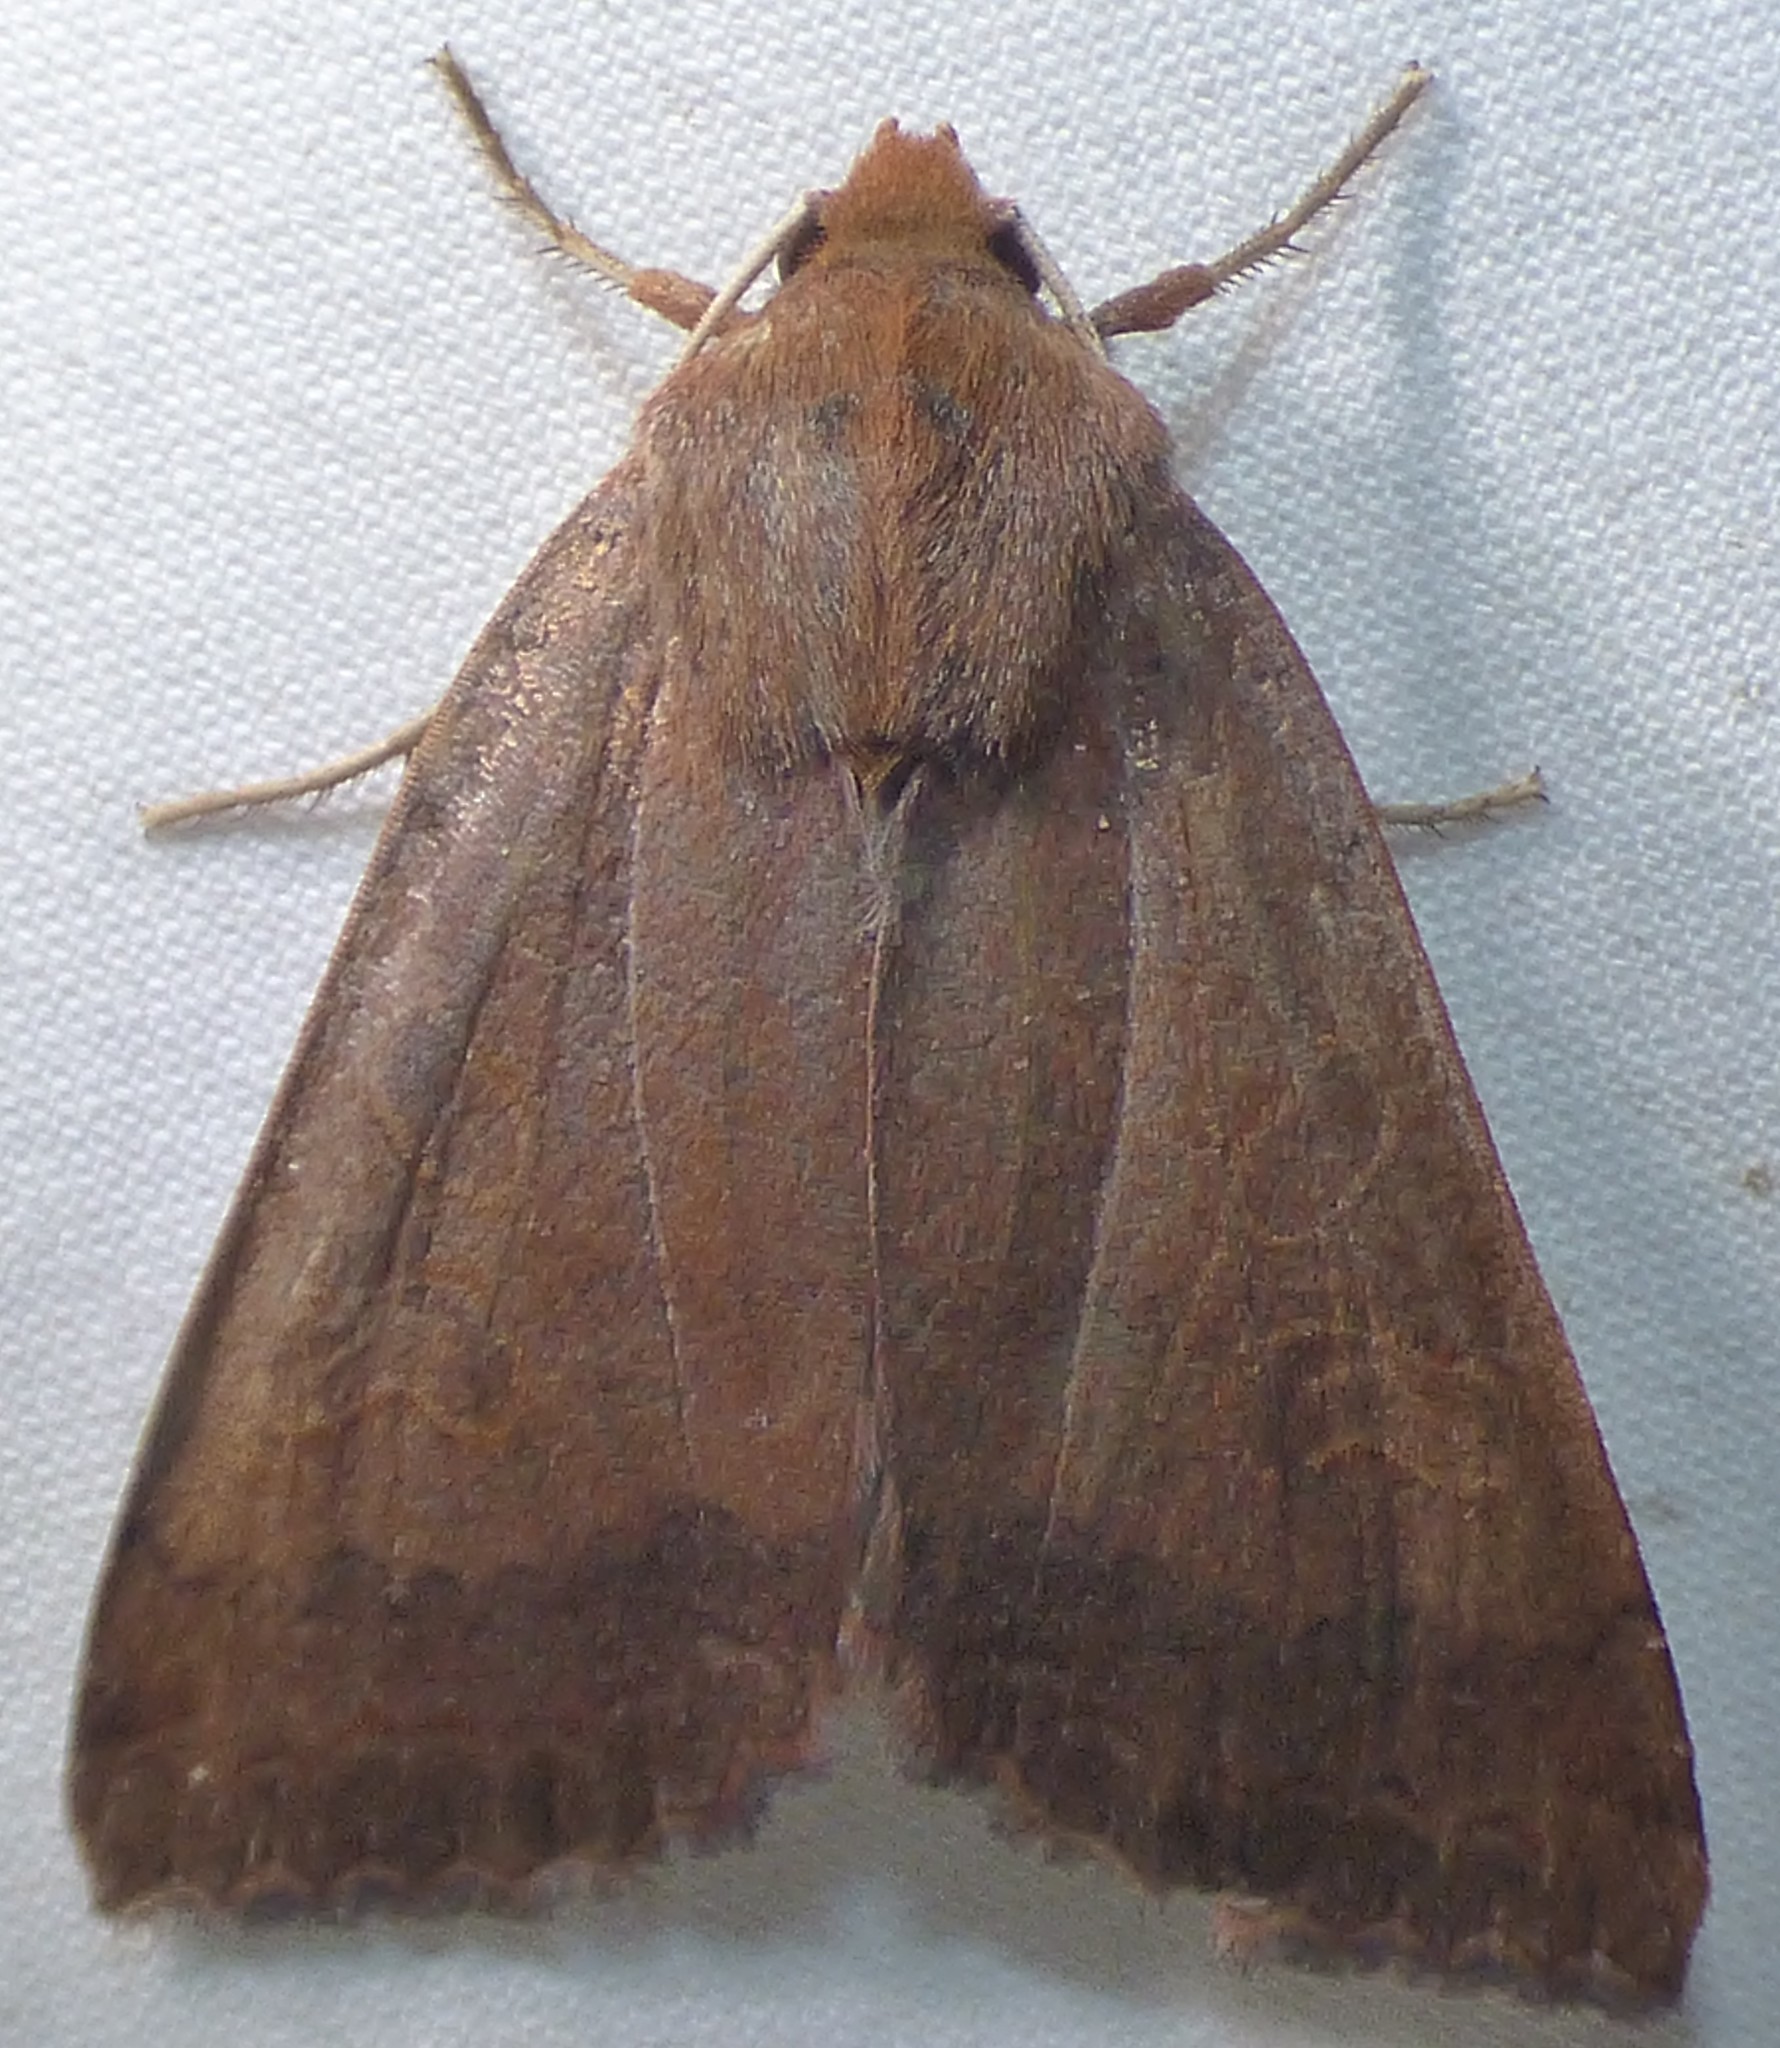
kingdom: Animalia
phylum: Arthropoda
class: Insecta
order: Lepidoptera
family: Noctuidae
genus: Metaxaglaea
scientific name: Metaxaglaea viatica
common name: Roadside sallow
